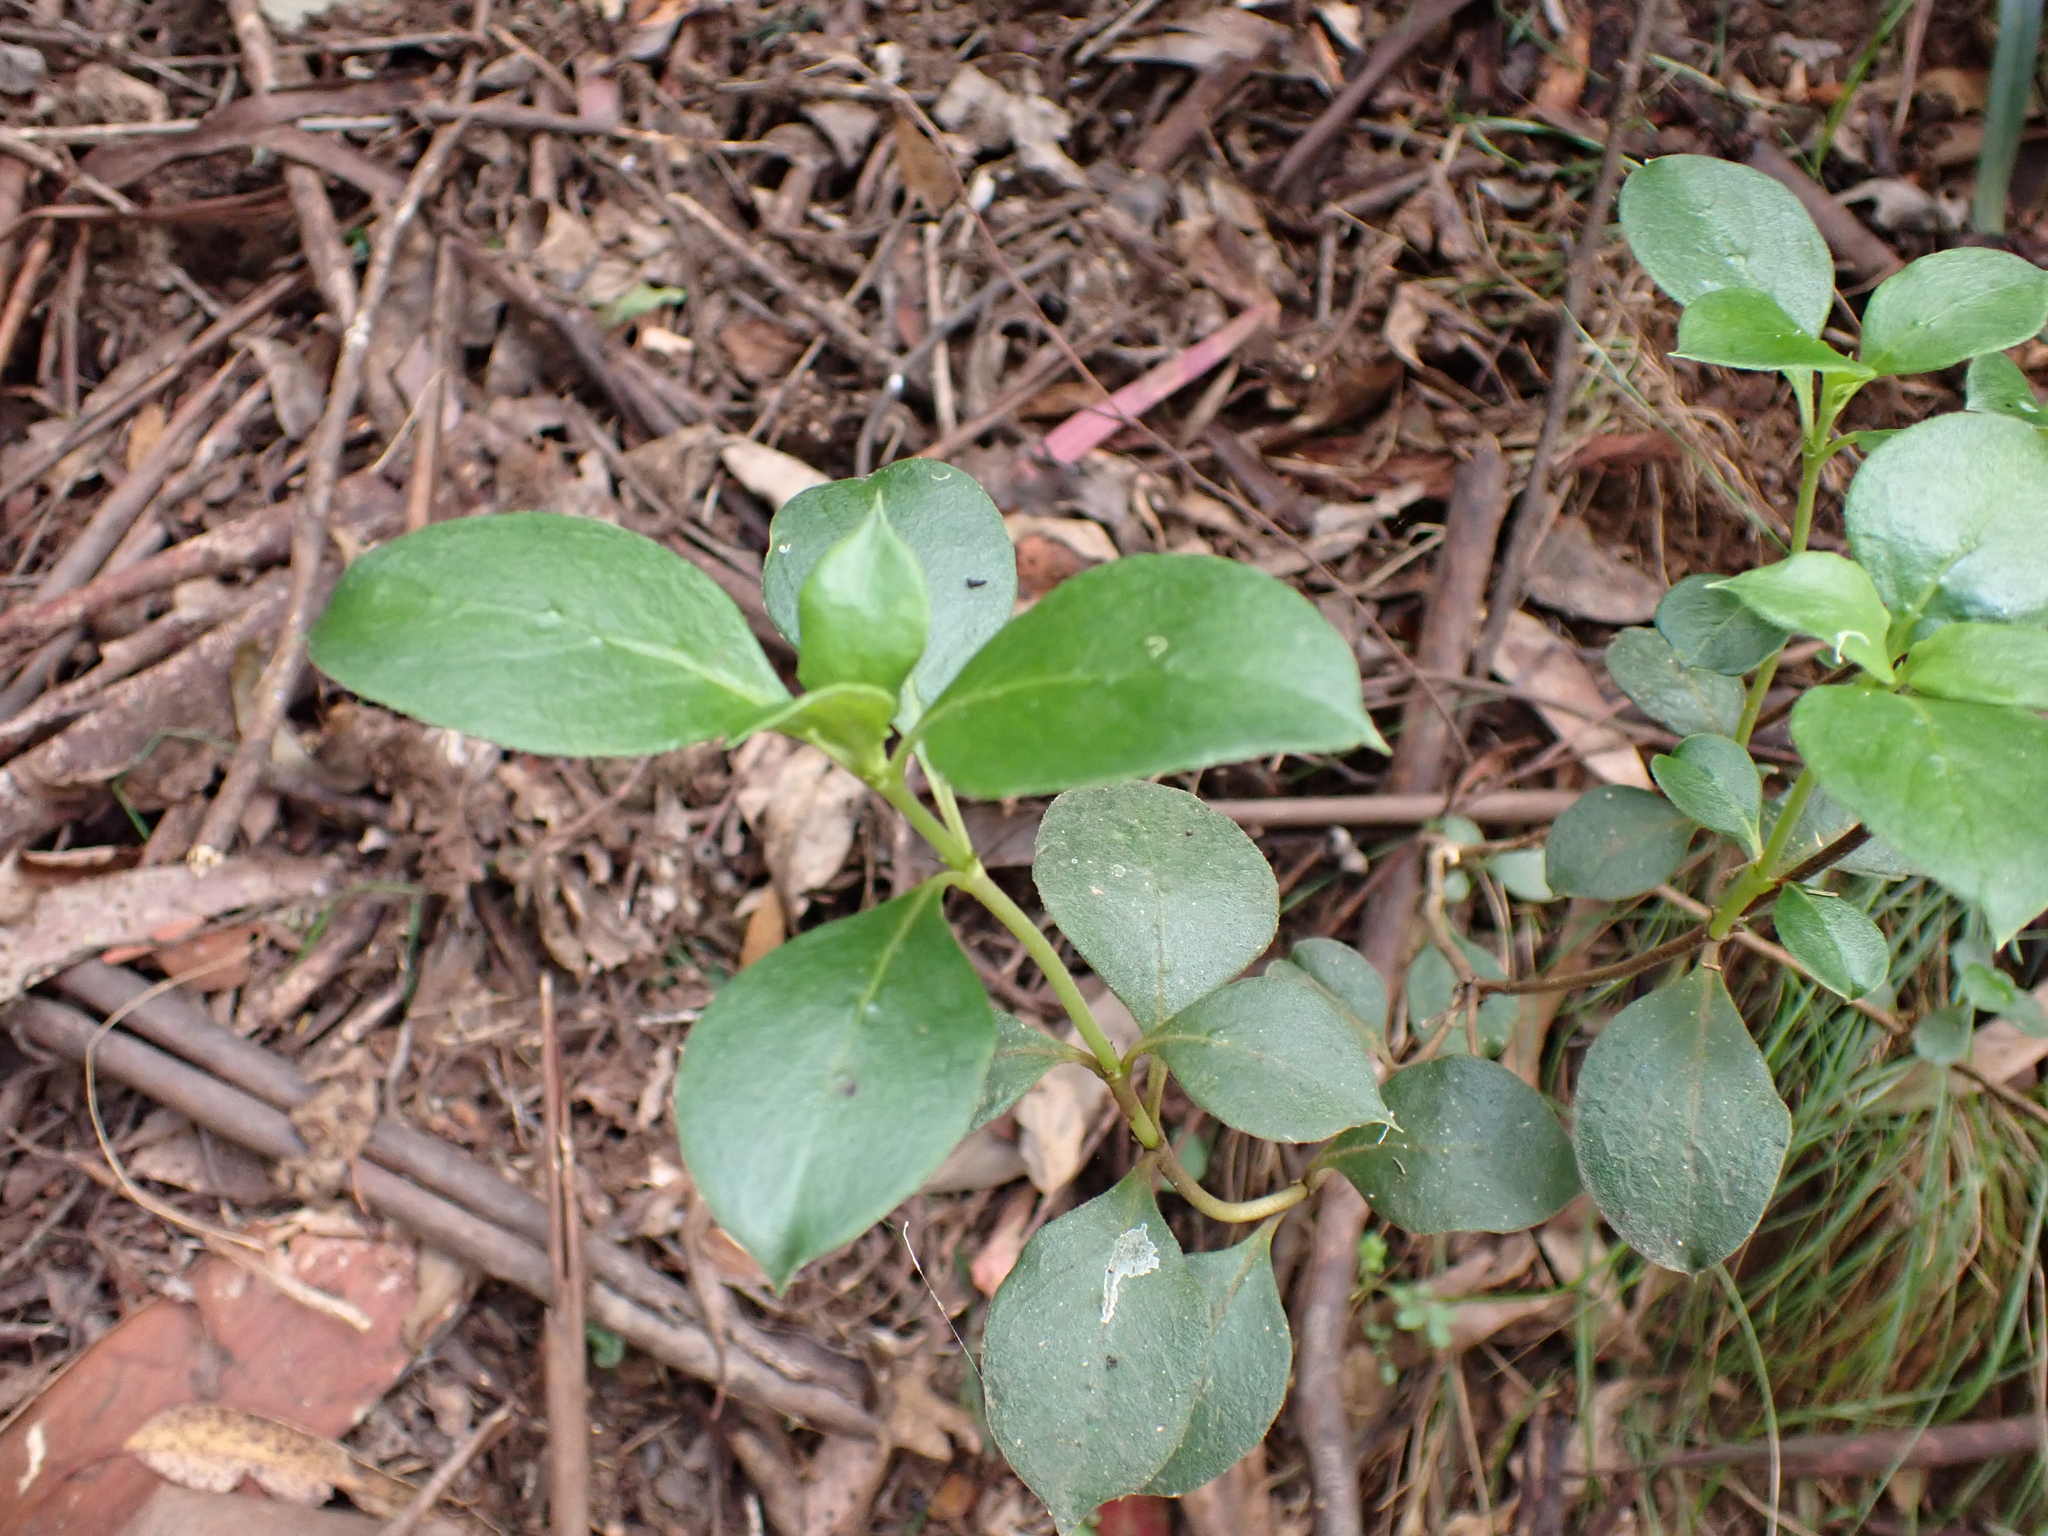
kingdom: Plantae
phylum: Tracheophyta
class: Magnoliopsida
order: Gentianales
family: Rubiaceae
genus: Coprosma
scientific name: Coprosma hirtella
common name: Rough coprosma
